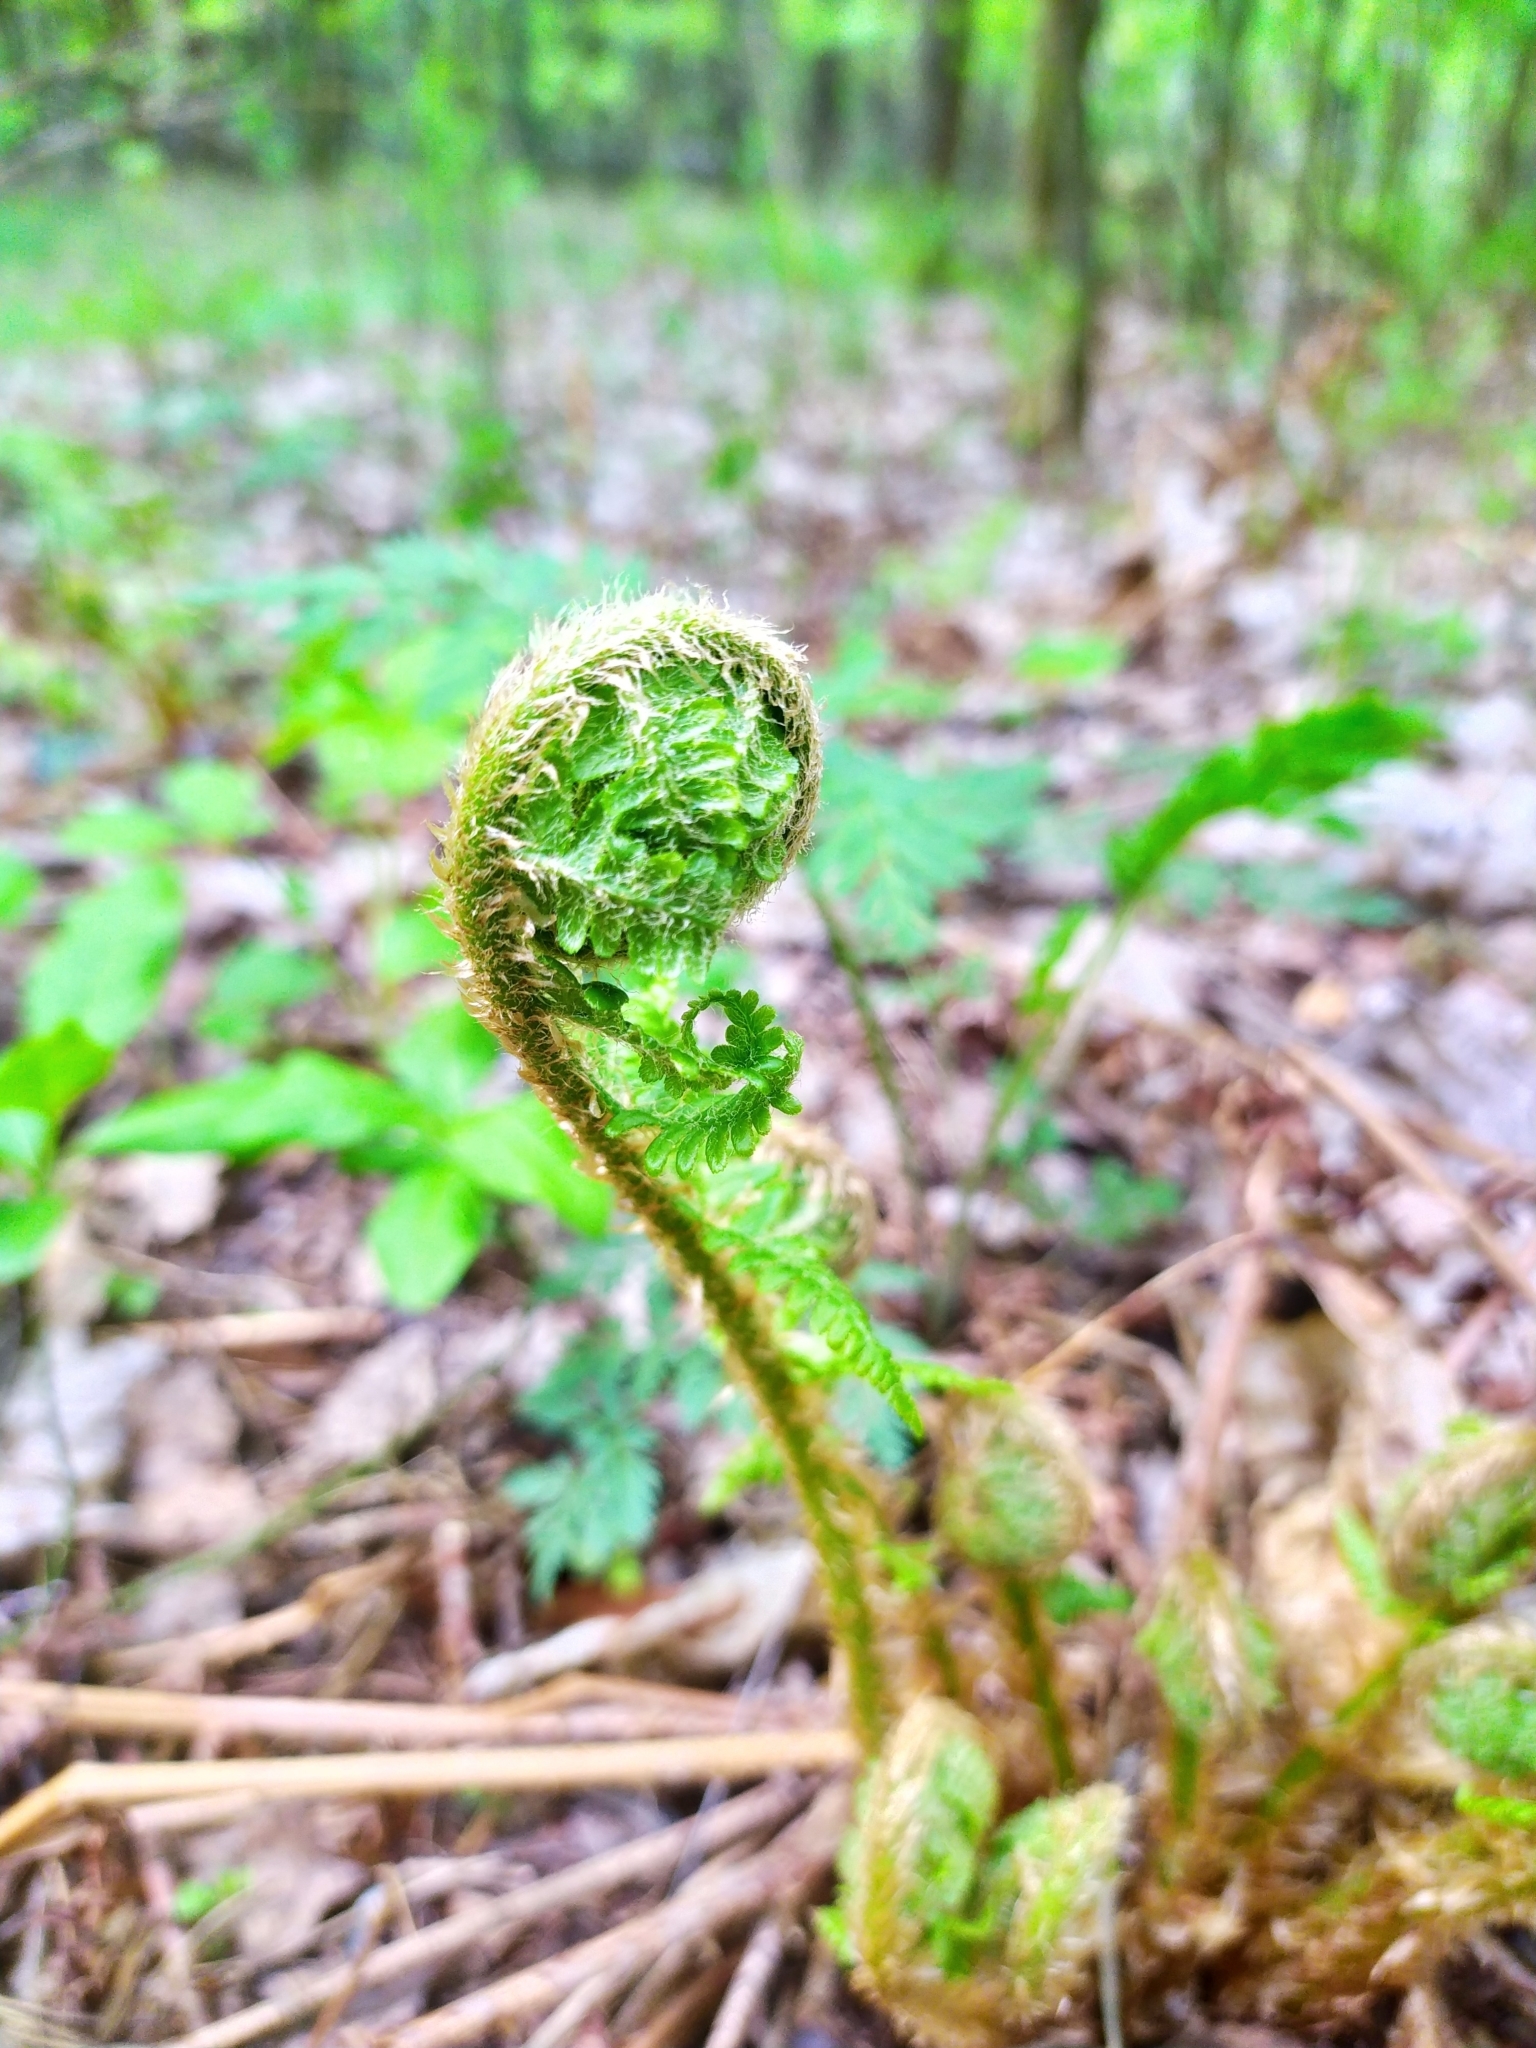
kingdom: Plantae
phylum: Tracheophyta
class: Polypodiopsida
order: Polypodiales
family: Dryopteridaceae
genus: Dryopteris
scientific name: Dryopteris filix-mas
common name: Male fern
